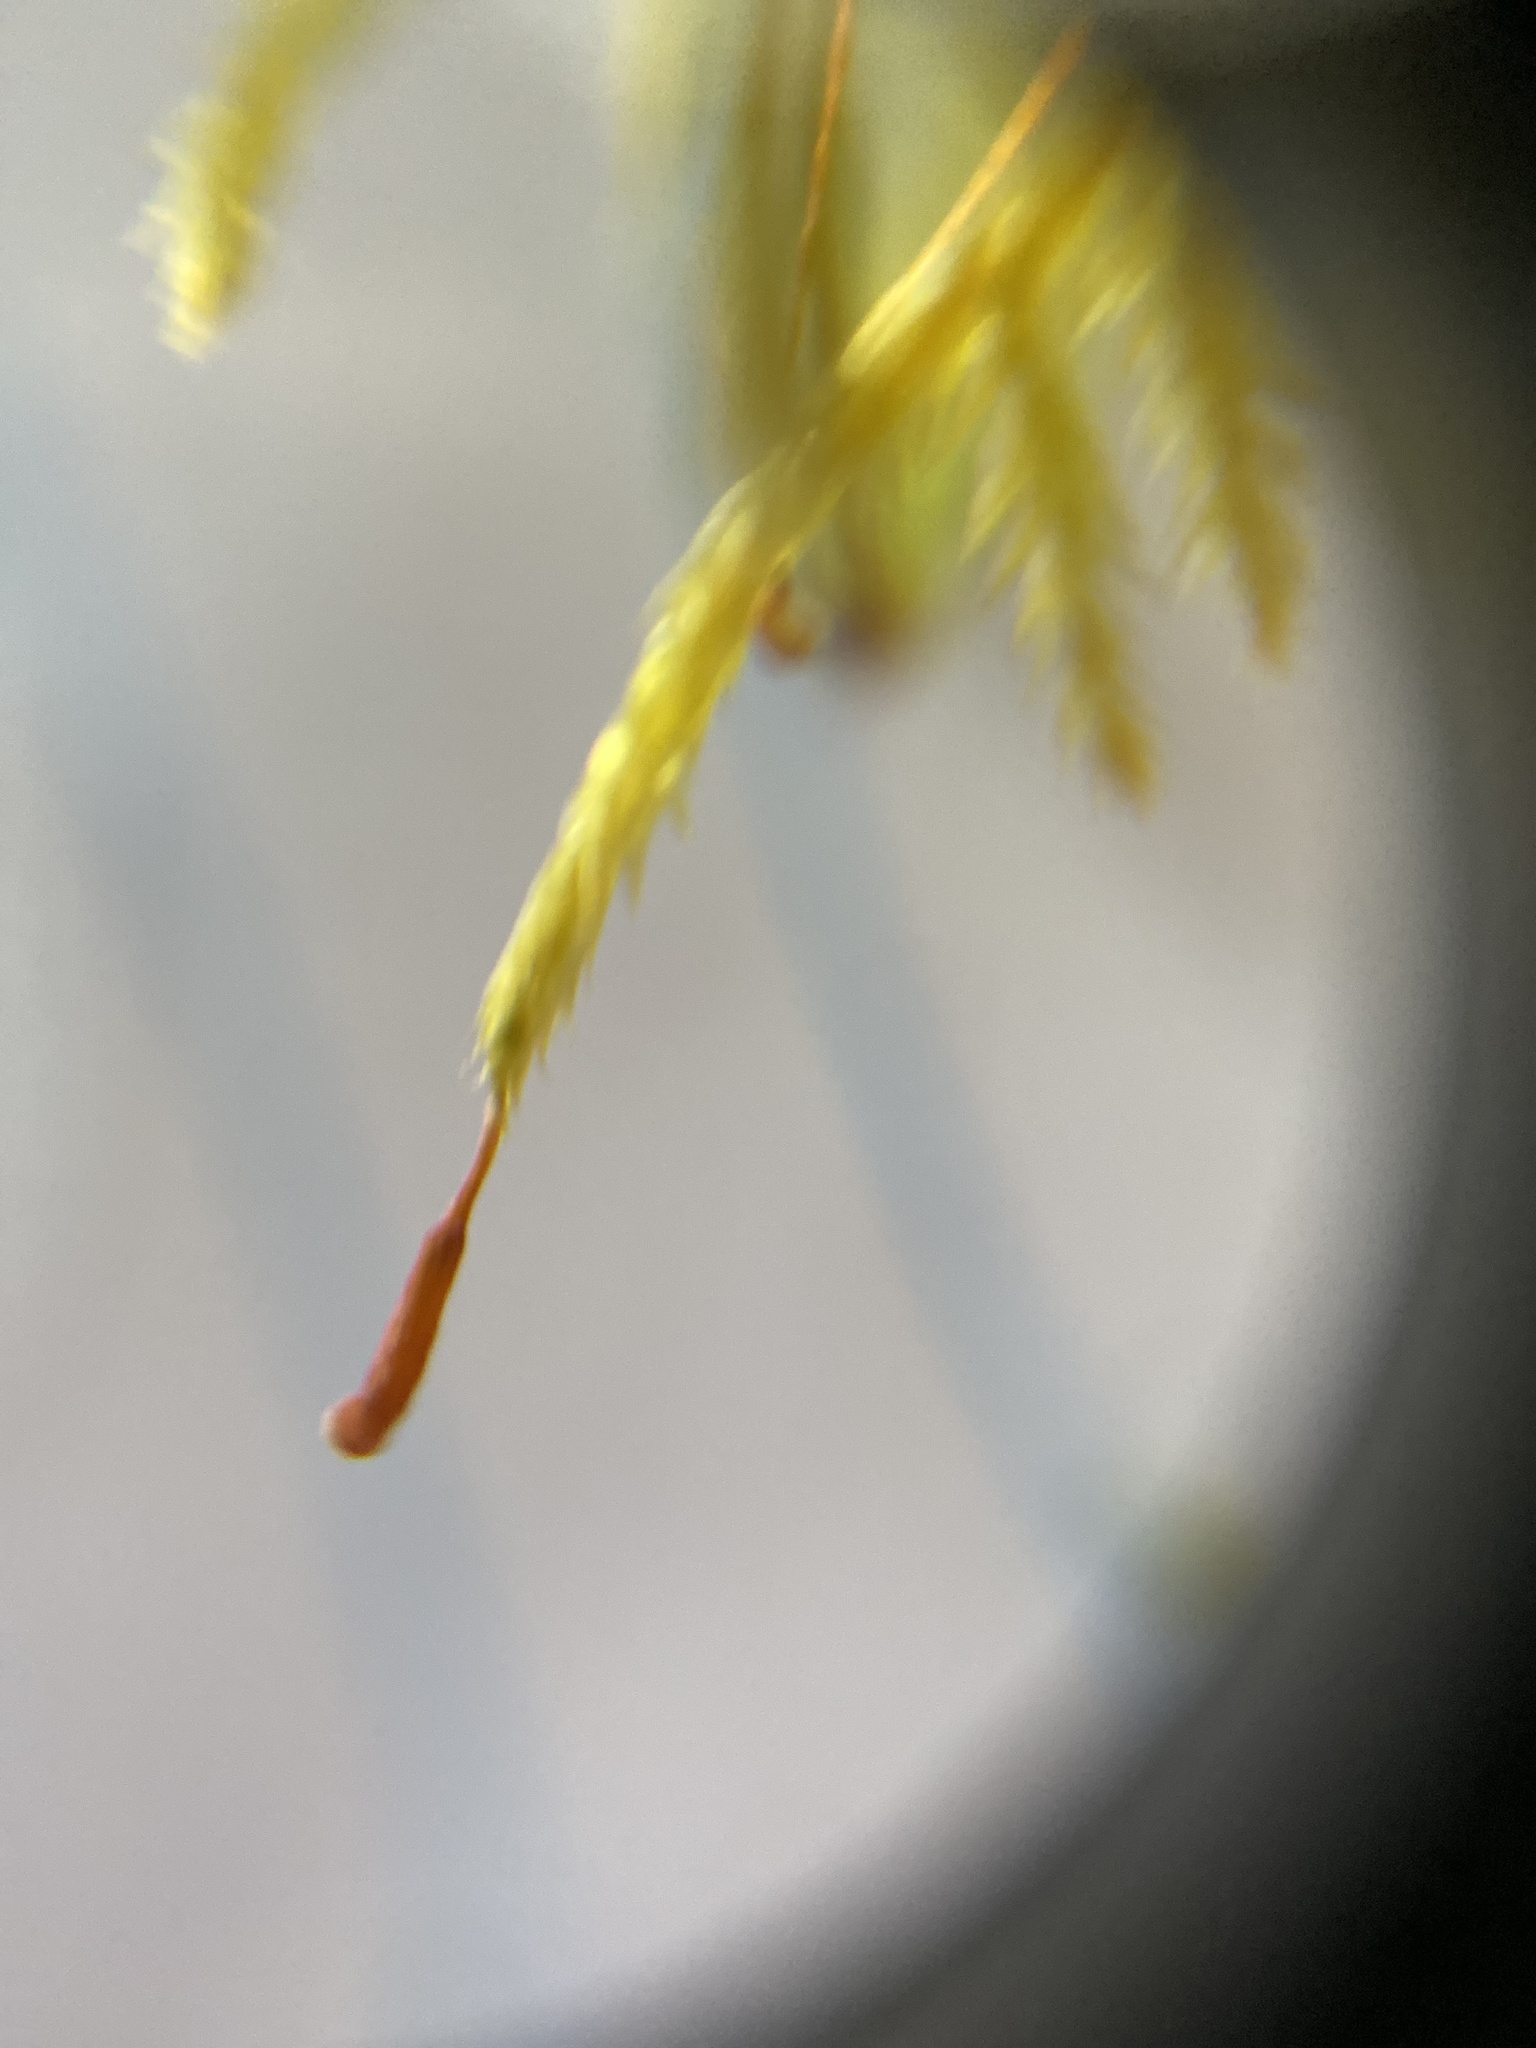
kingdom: Plantae
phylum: Bryophyta
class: Bryopsida
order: Hypnales
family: Callicladiaceae
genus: Callicladium
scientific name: Callicladium haldanianum
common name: Beautiful branch moss
